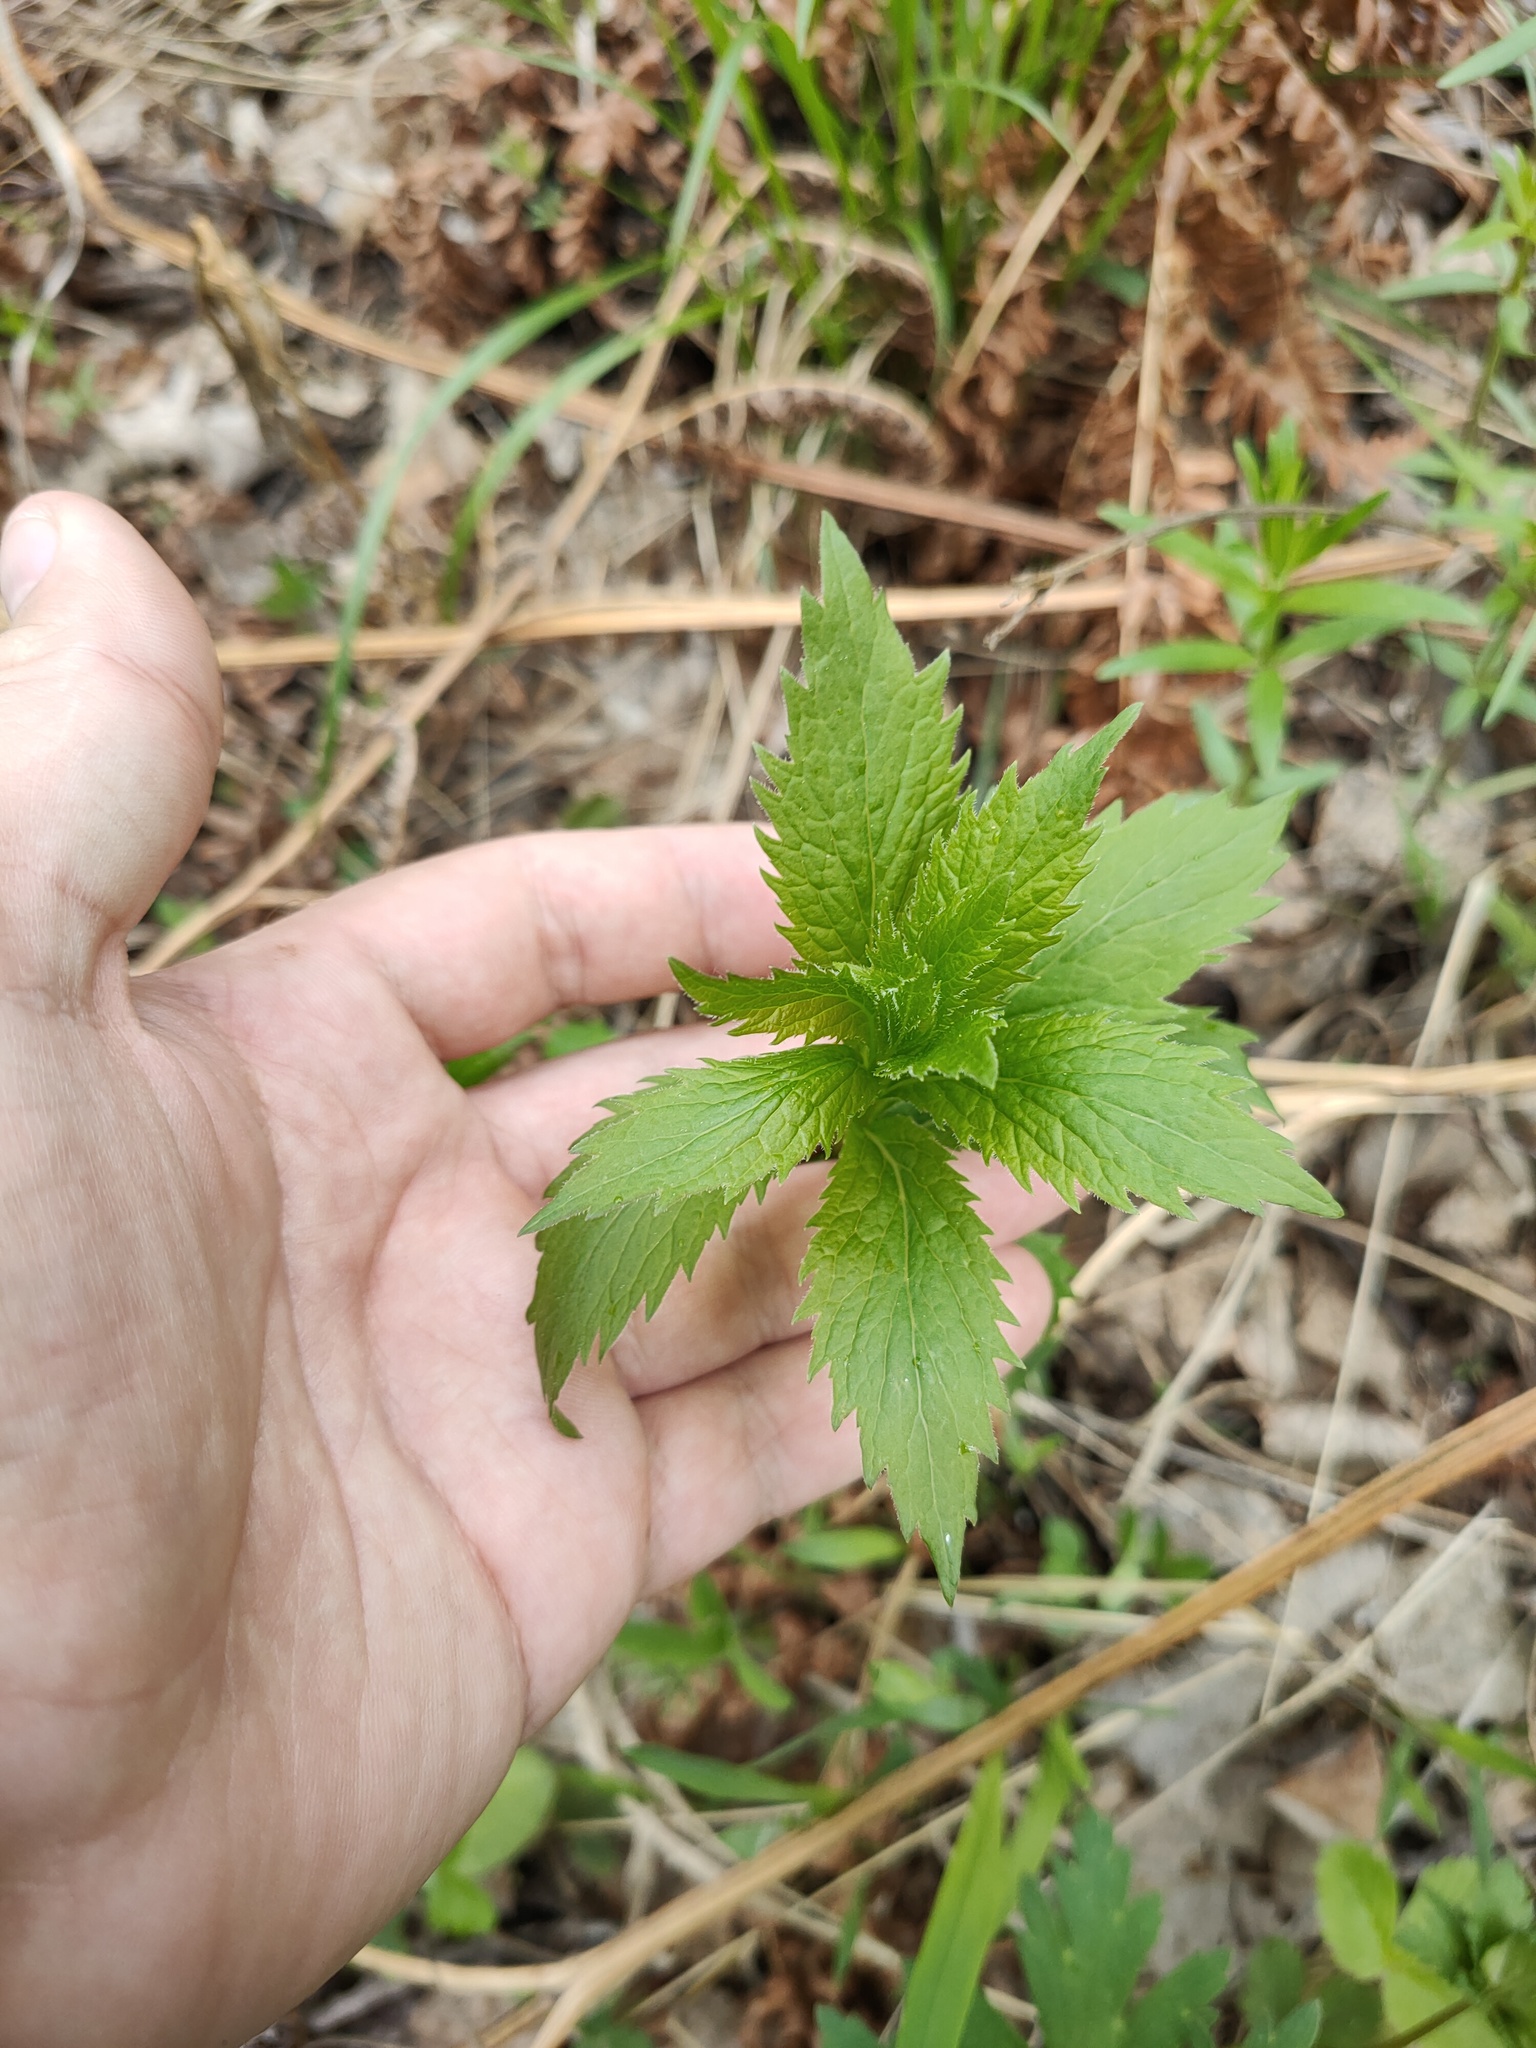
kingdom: Plantae
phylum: Tracheophyta
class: Magnoliopsida
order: Asterales
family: Campanulaceae
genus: Adenophora
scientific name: Adenophora liliifolia
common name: Lilyleaf ladybells
